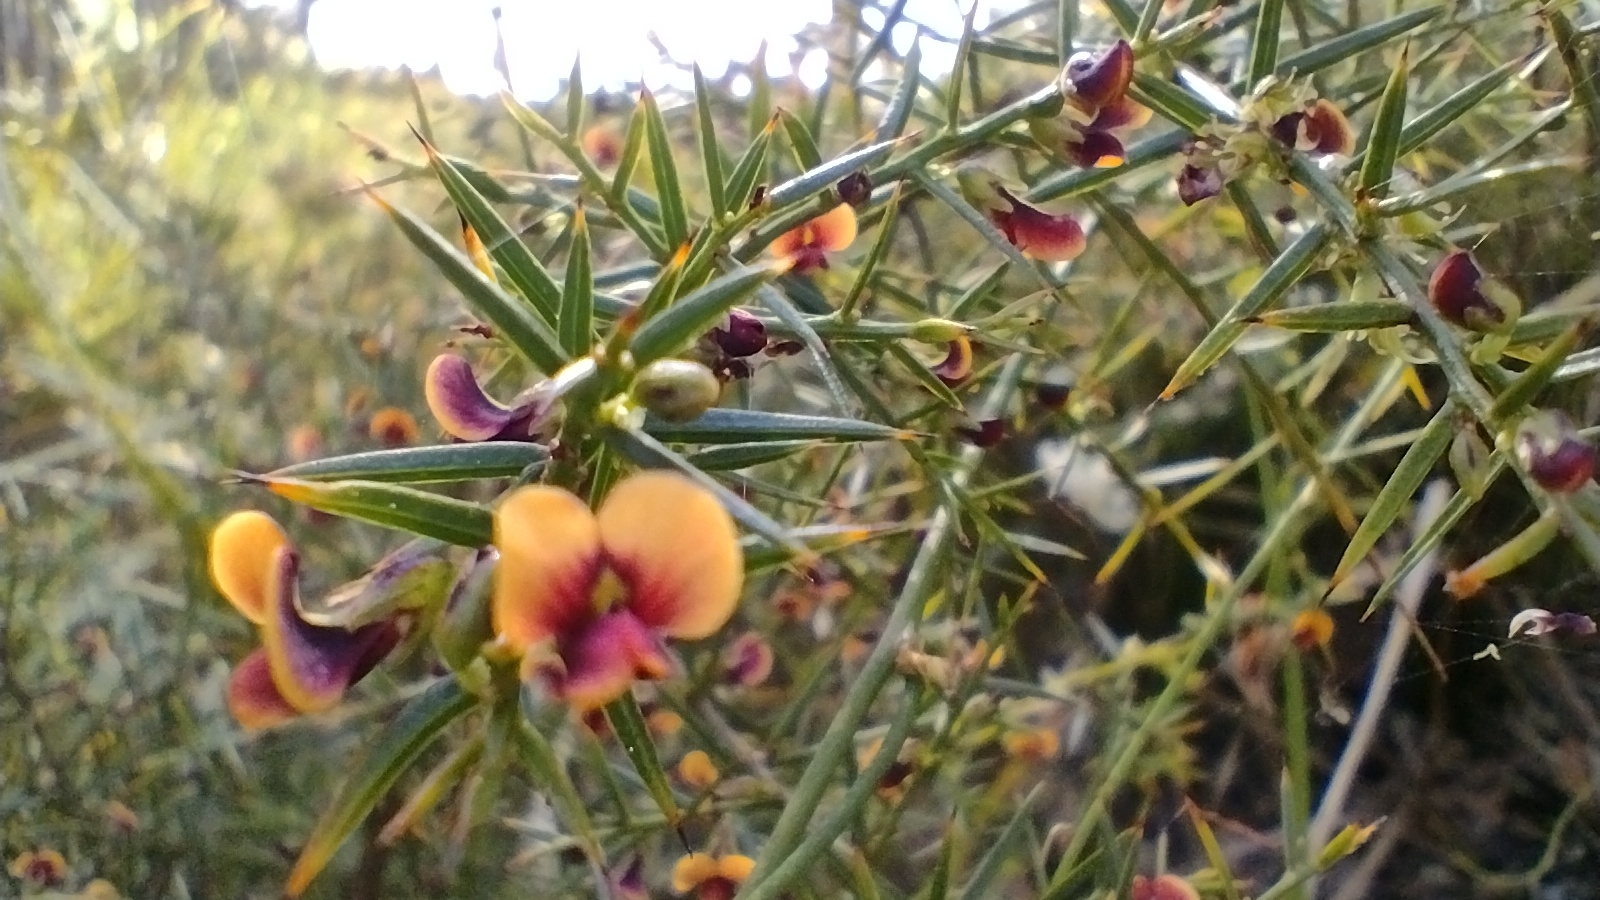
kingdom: Plantae
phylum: Tracheophyta
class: Magnoliopsida
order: Fabales
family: Fabaceae
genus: Daviesia
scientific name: Daviesia ulicifolia
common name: Gorse bitter-pea
